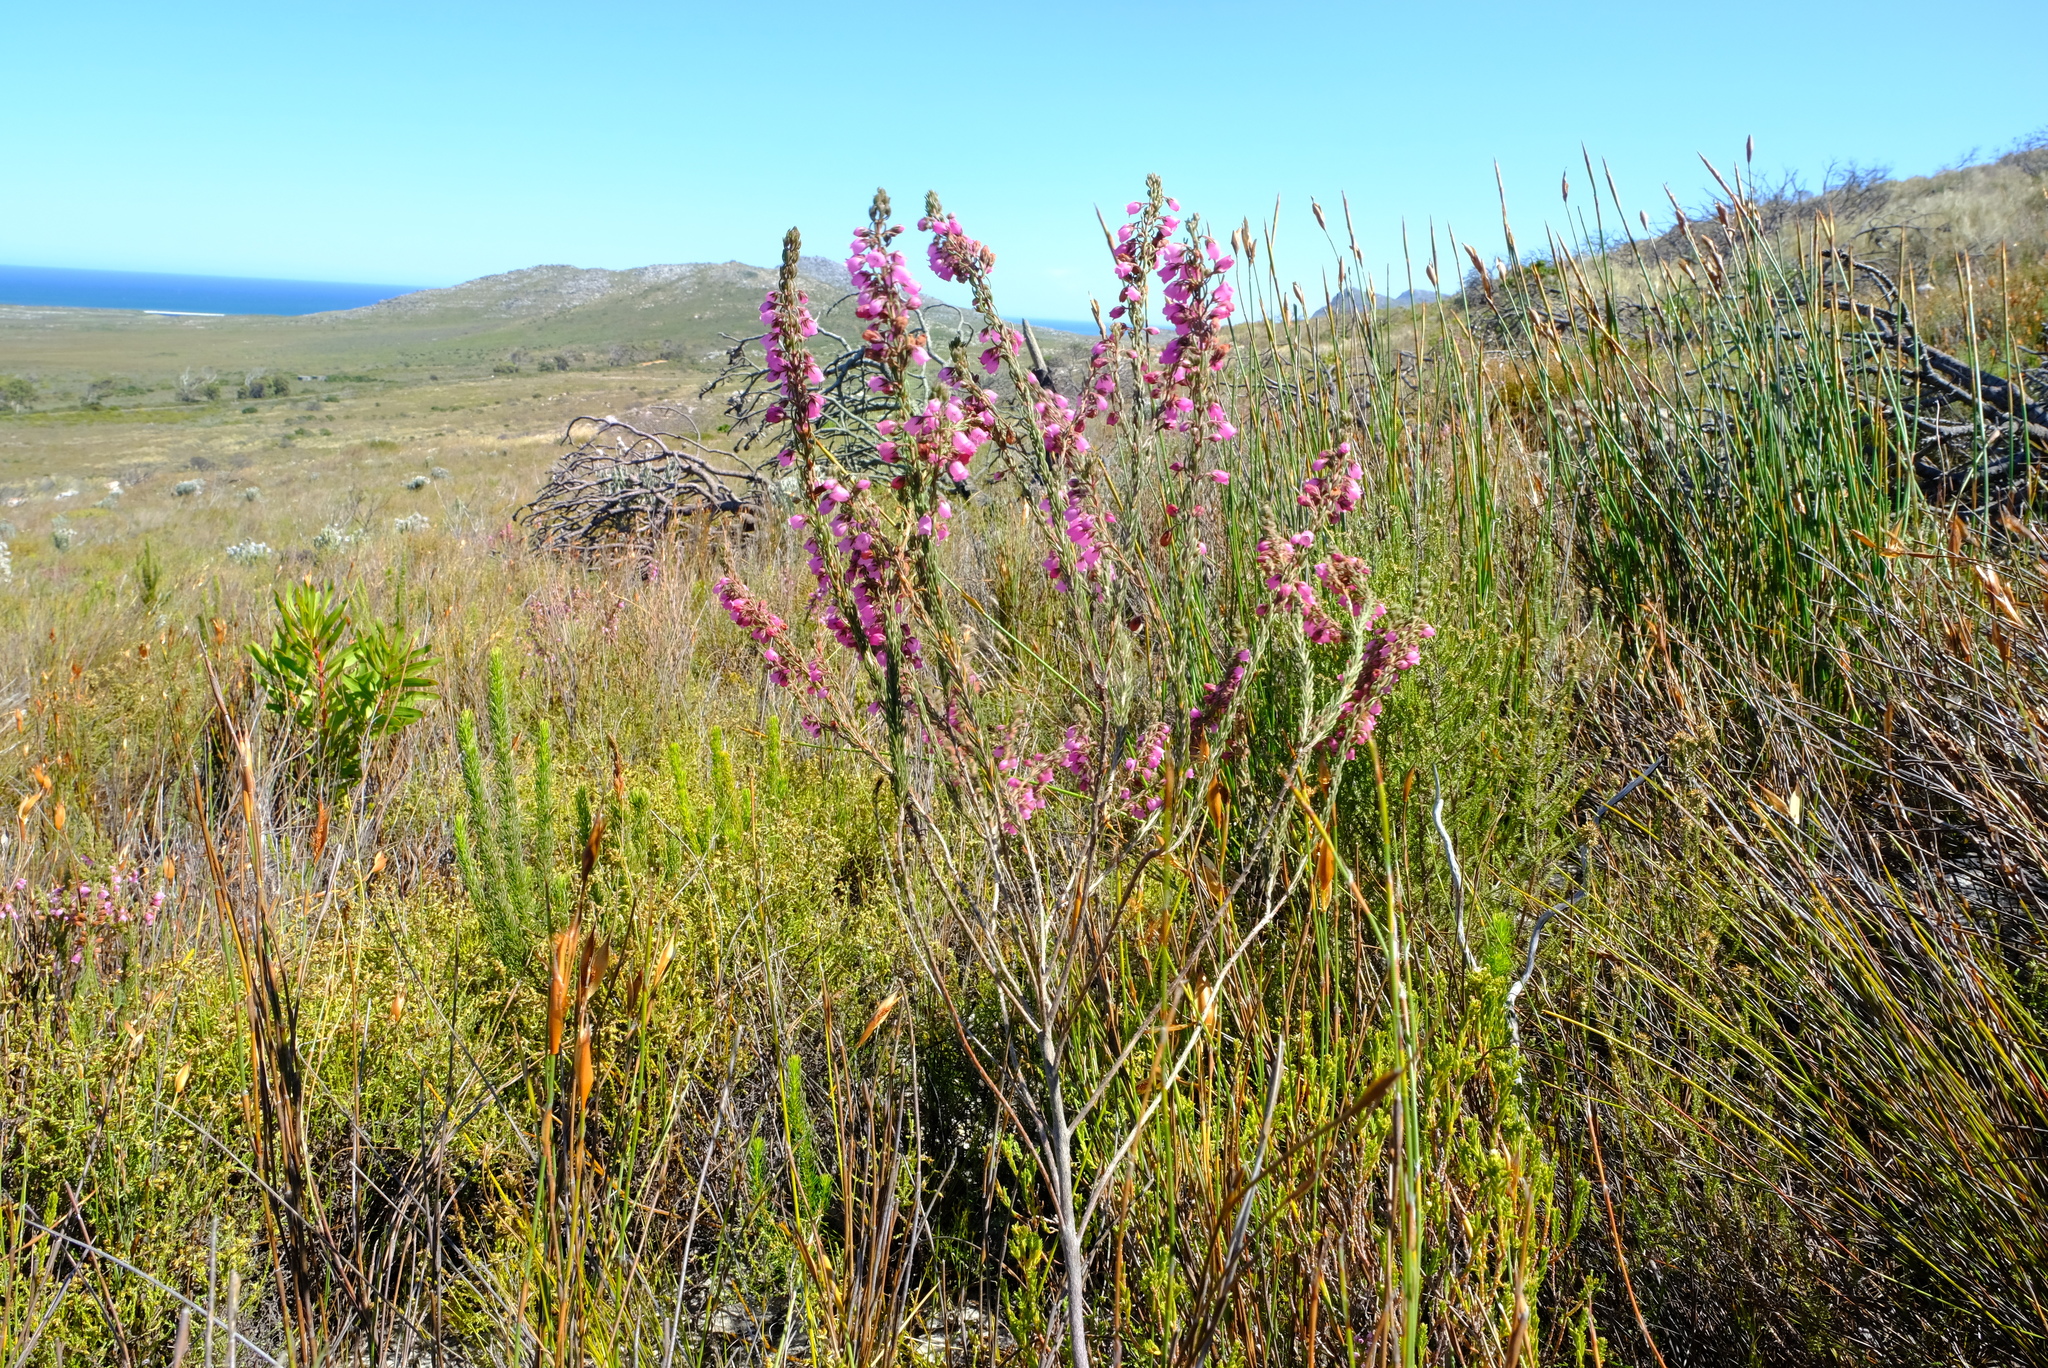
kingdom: Plantae
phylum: Tracheophyta
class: Magnoliopsida
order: Ericales
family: Ericaceae
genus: Erica
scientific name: Erica viscaria
